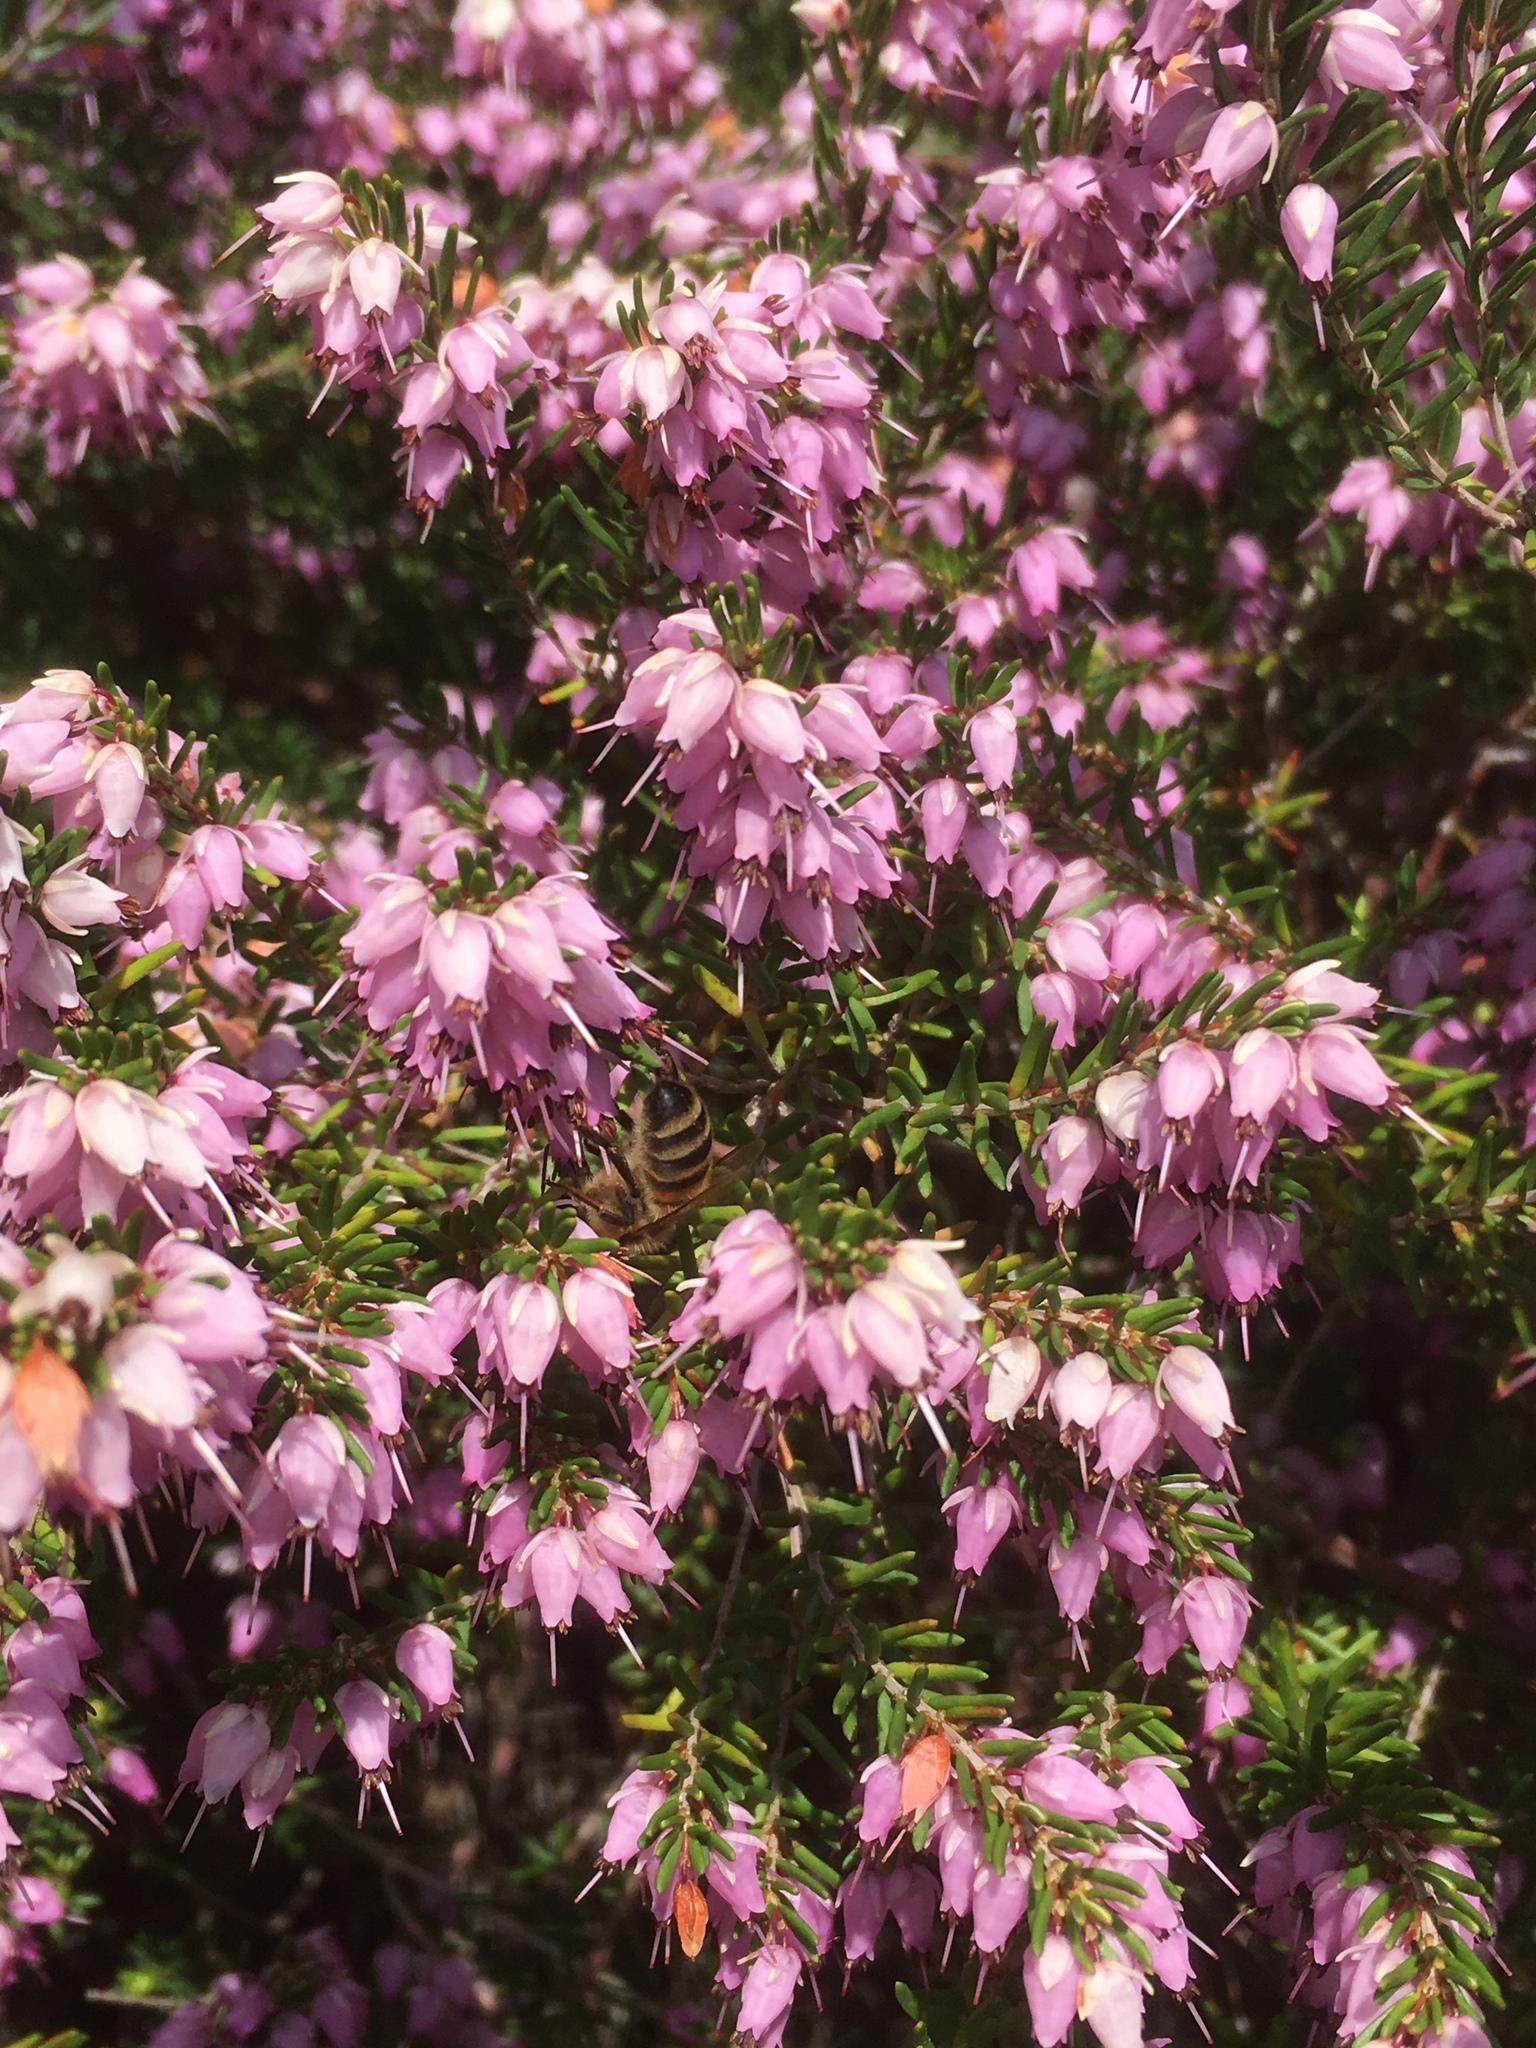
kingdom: Animalia
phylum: Arthropoda
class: Insecta
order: Hymenoptera
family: Apidae
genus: Apis
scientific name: Apis mellifera
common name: Honey bee
